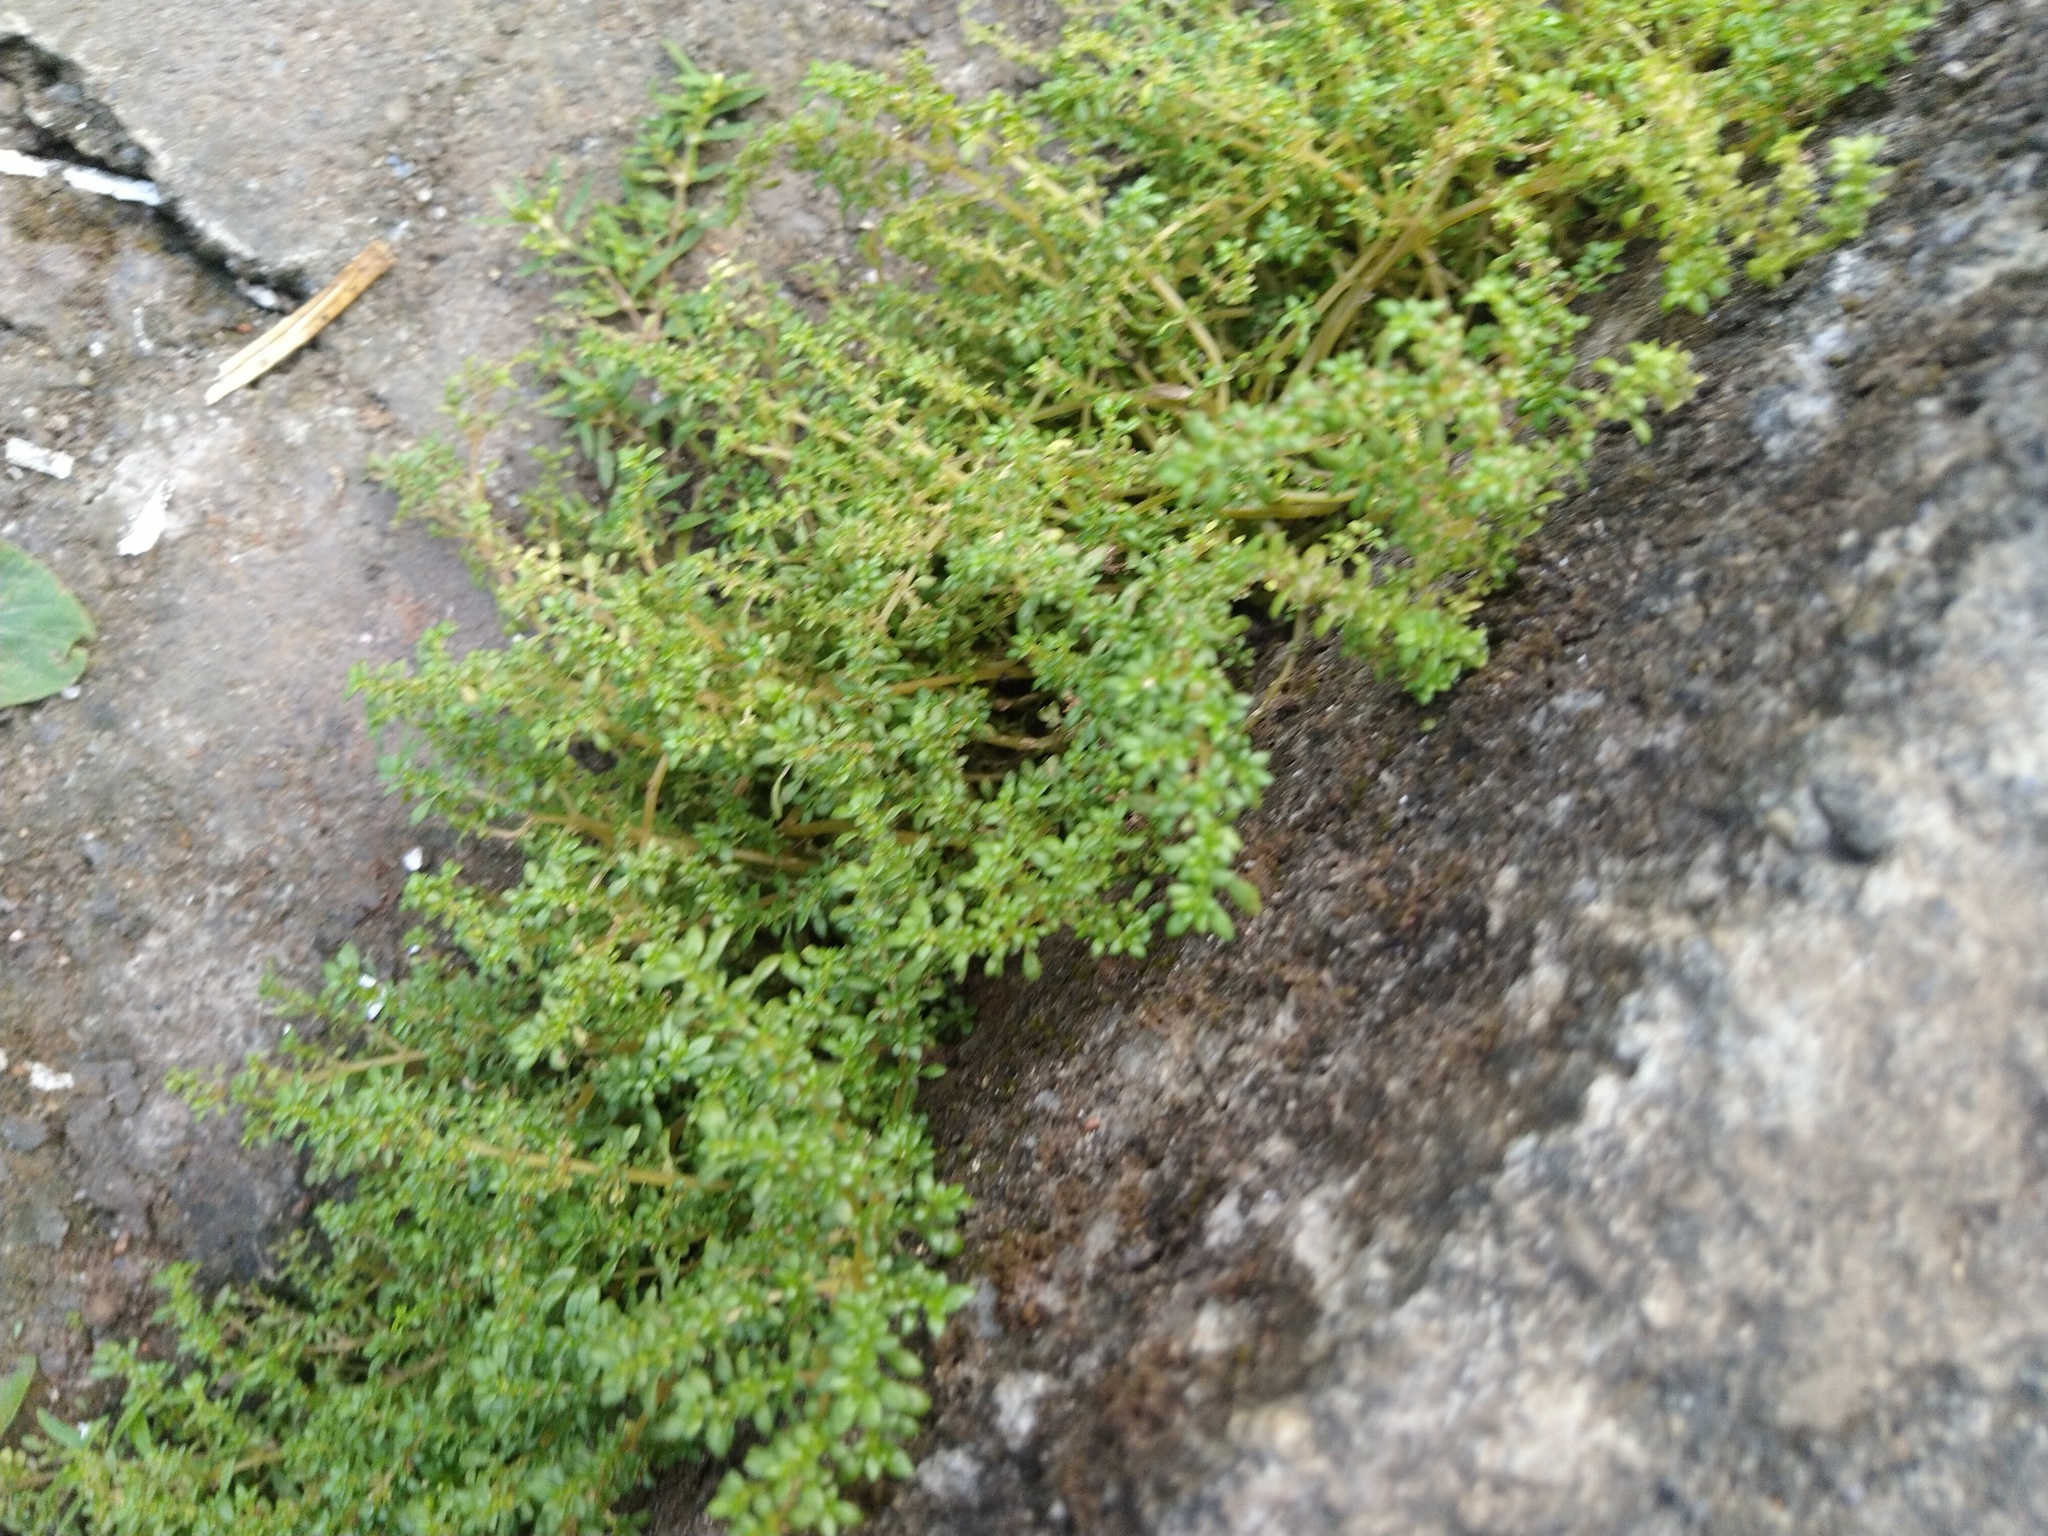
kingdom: Plantae
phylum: Tracheophyta
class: Magnoliopsida
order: Rosales
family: Urticaceae
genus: Pilea
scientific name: Pilea microphylla
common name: Artillery-plant
